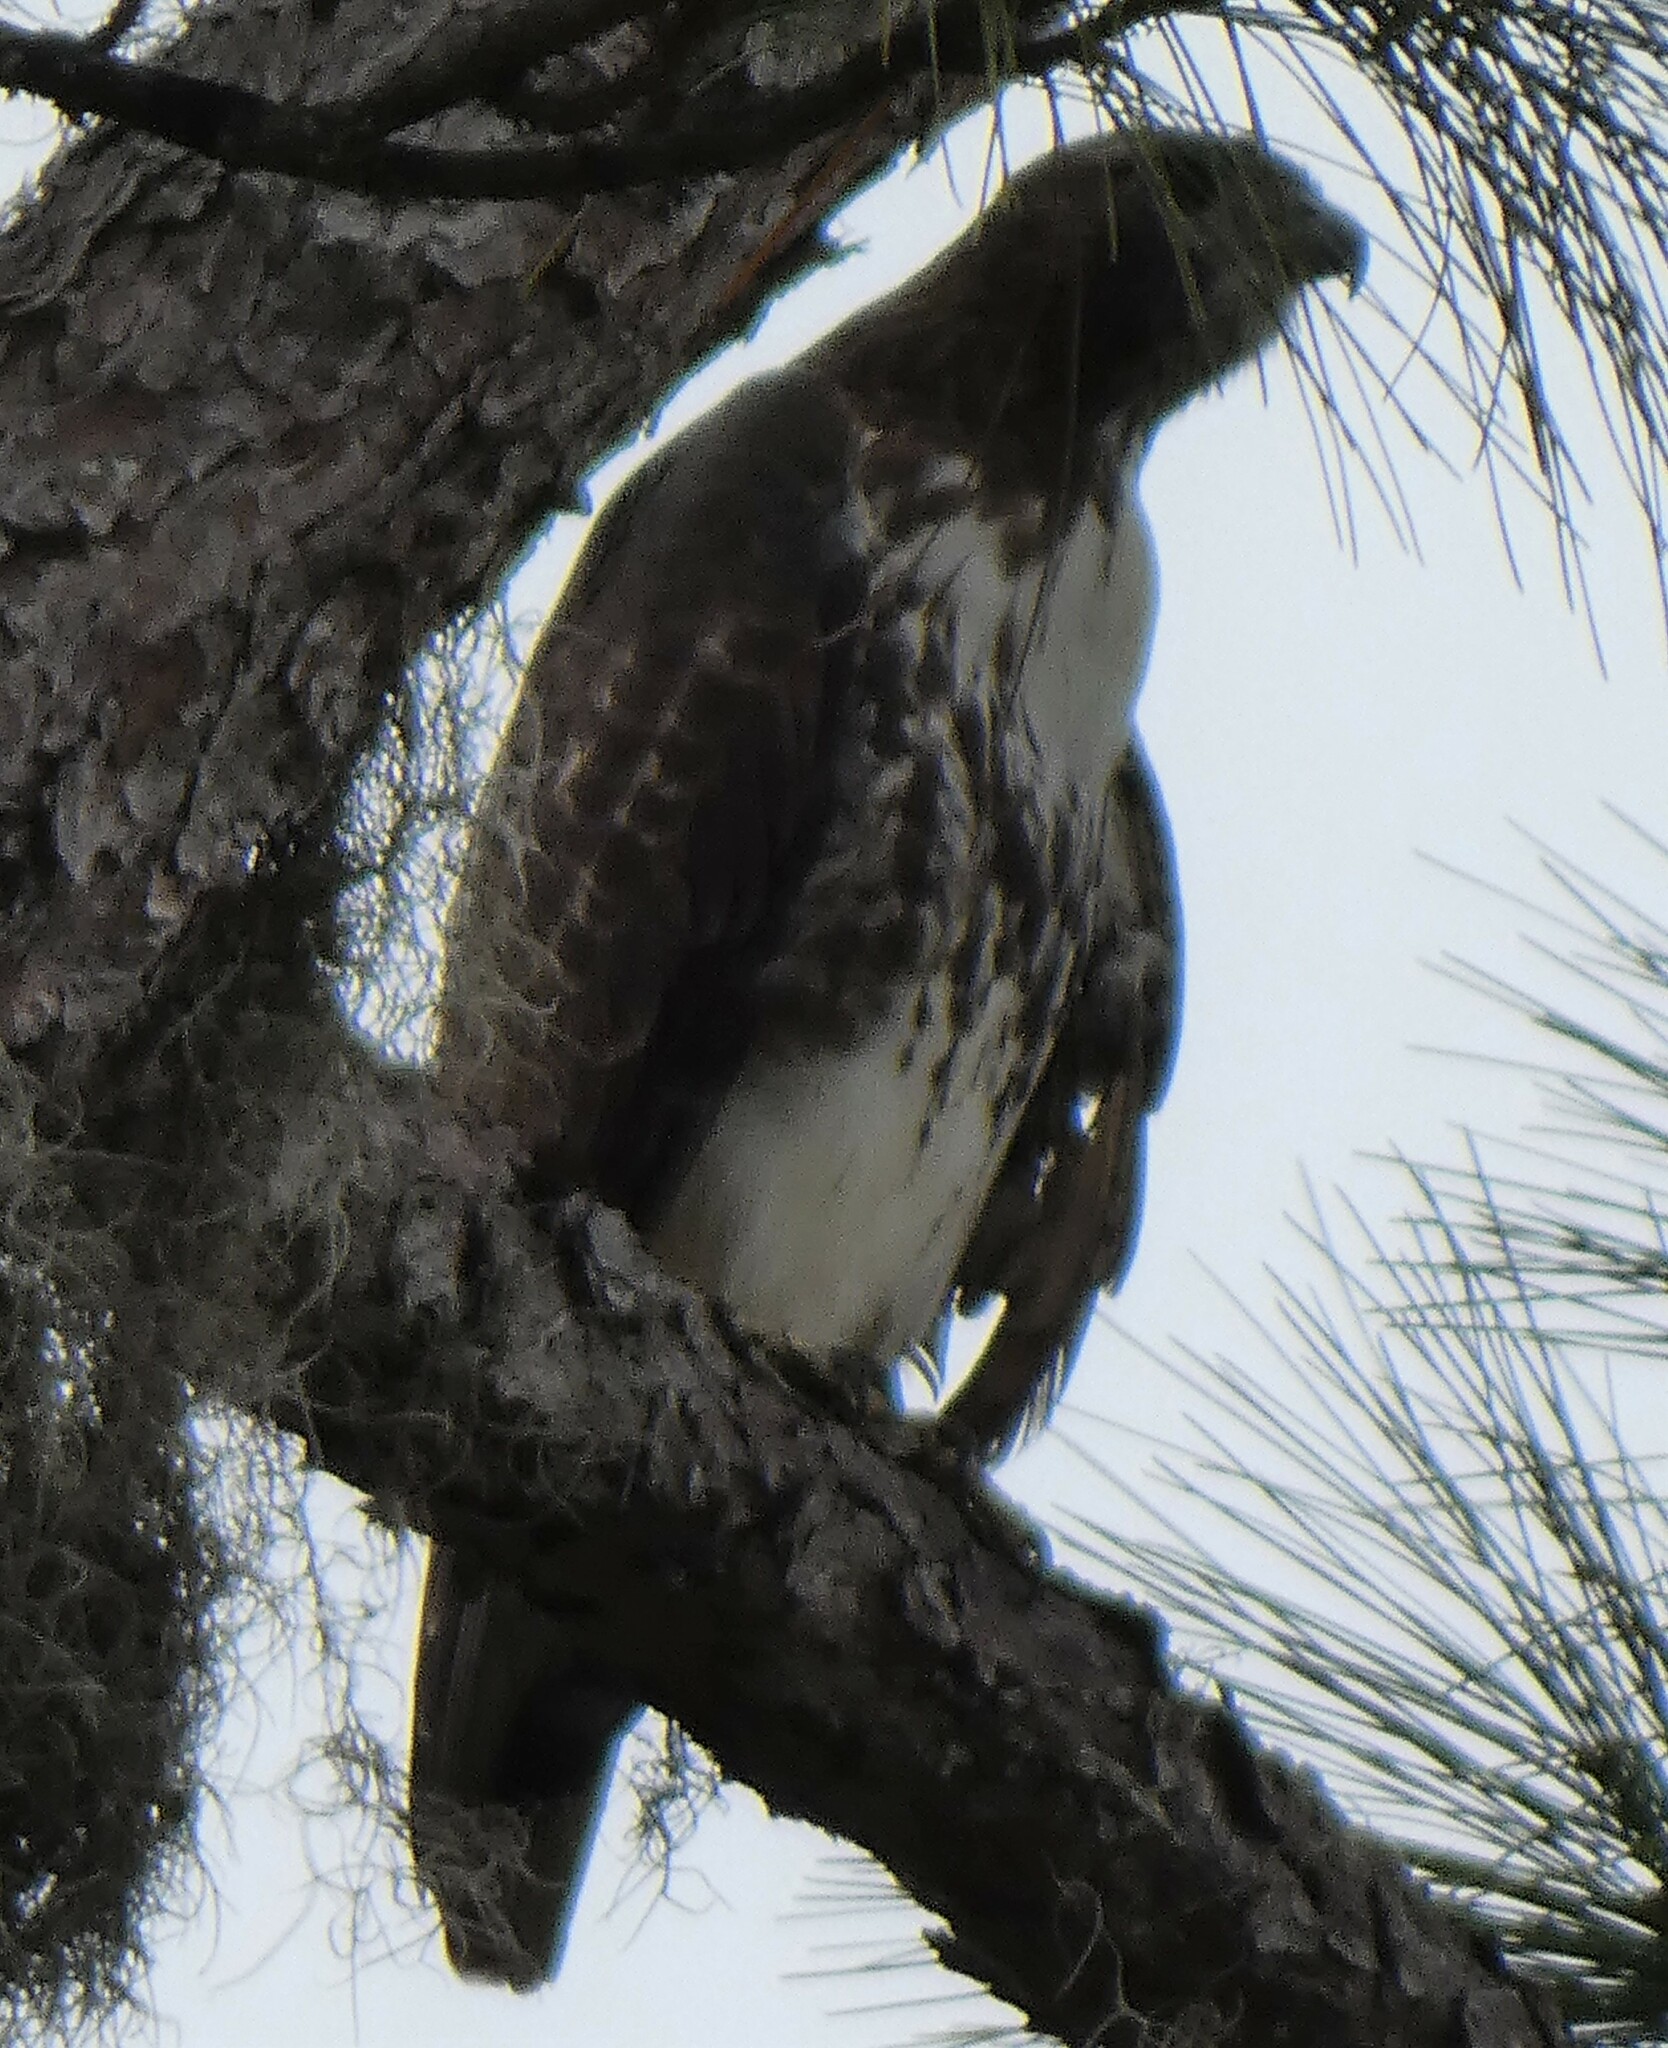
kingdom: Animalia
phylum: Chordata
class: Aves
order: Accipitriformes
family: Accipitridae
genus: Buteo
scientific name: Buteo jamaicensis
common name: Red-tailed hawk
